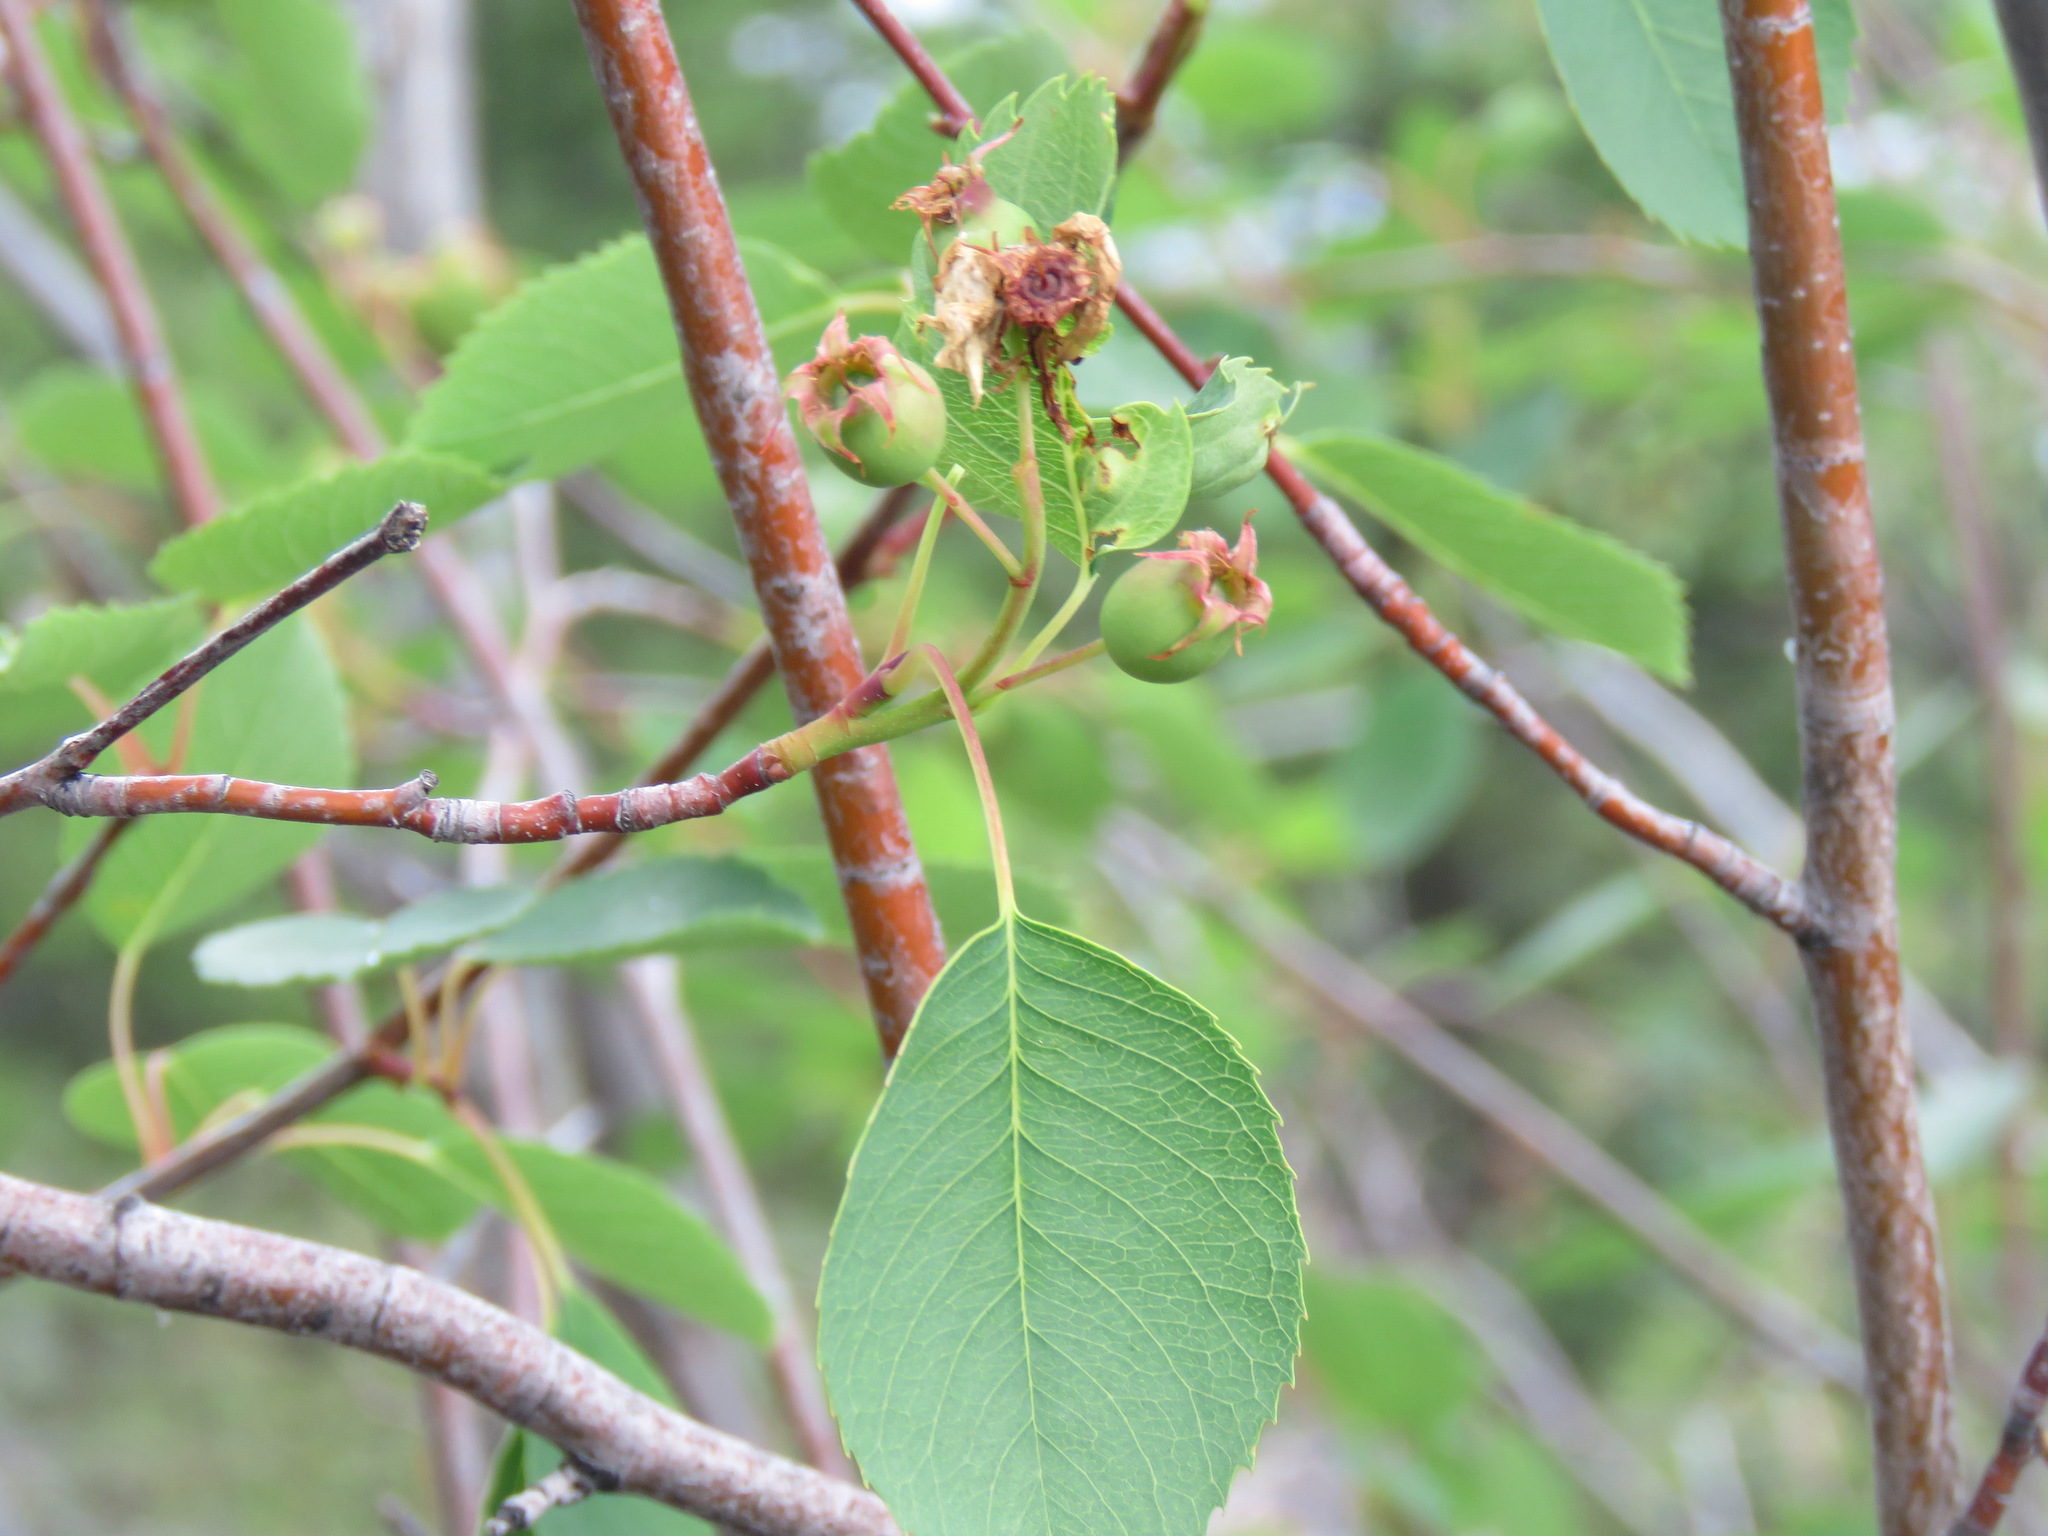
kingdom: Plantae
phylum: Tracheophyta
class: Magnoliopsida
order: Rosales
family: Rosaceae
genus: Amelanchier
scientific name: Amelanchier alnifolia
